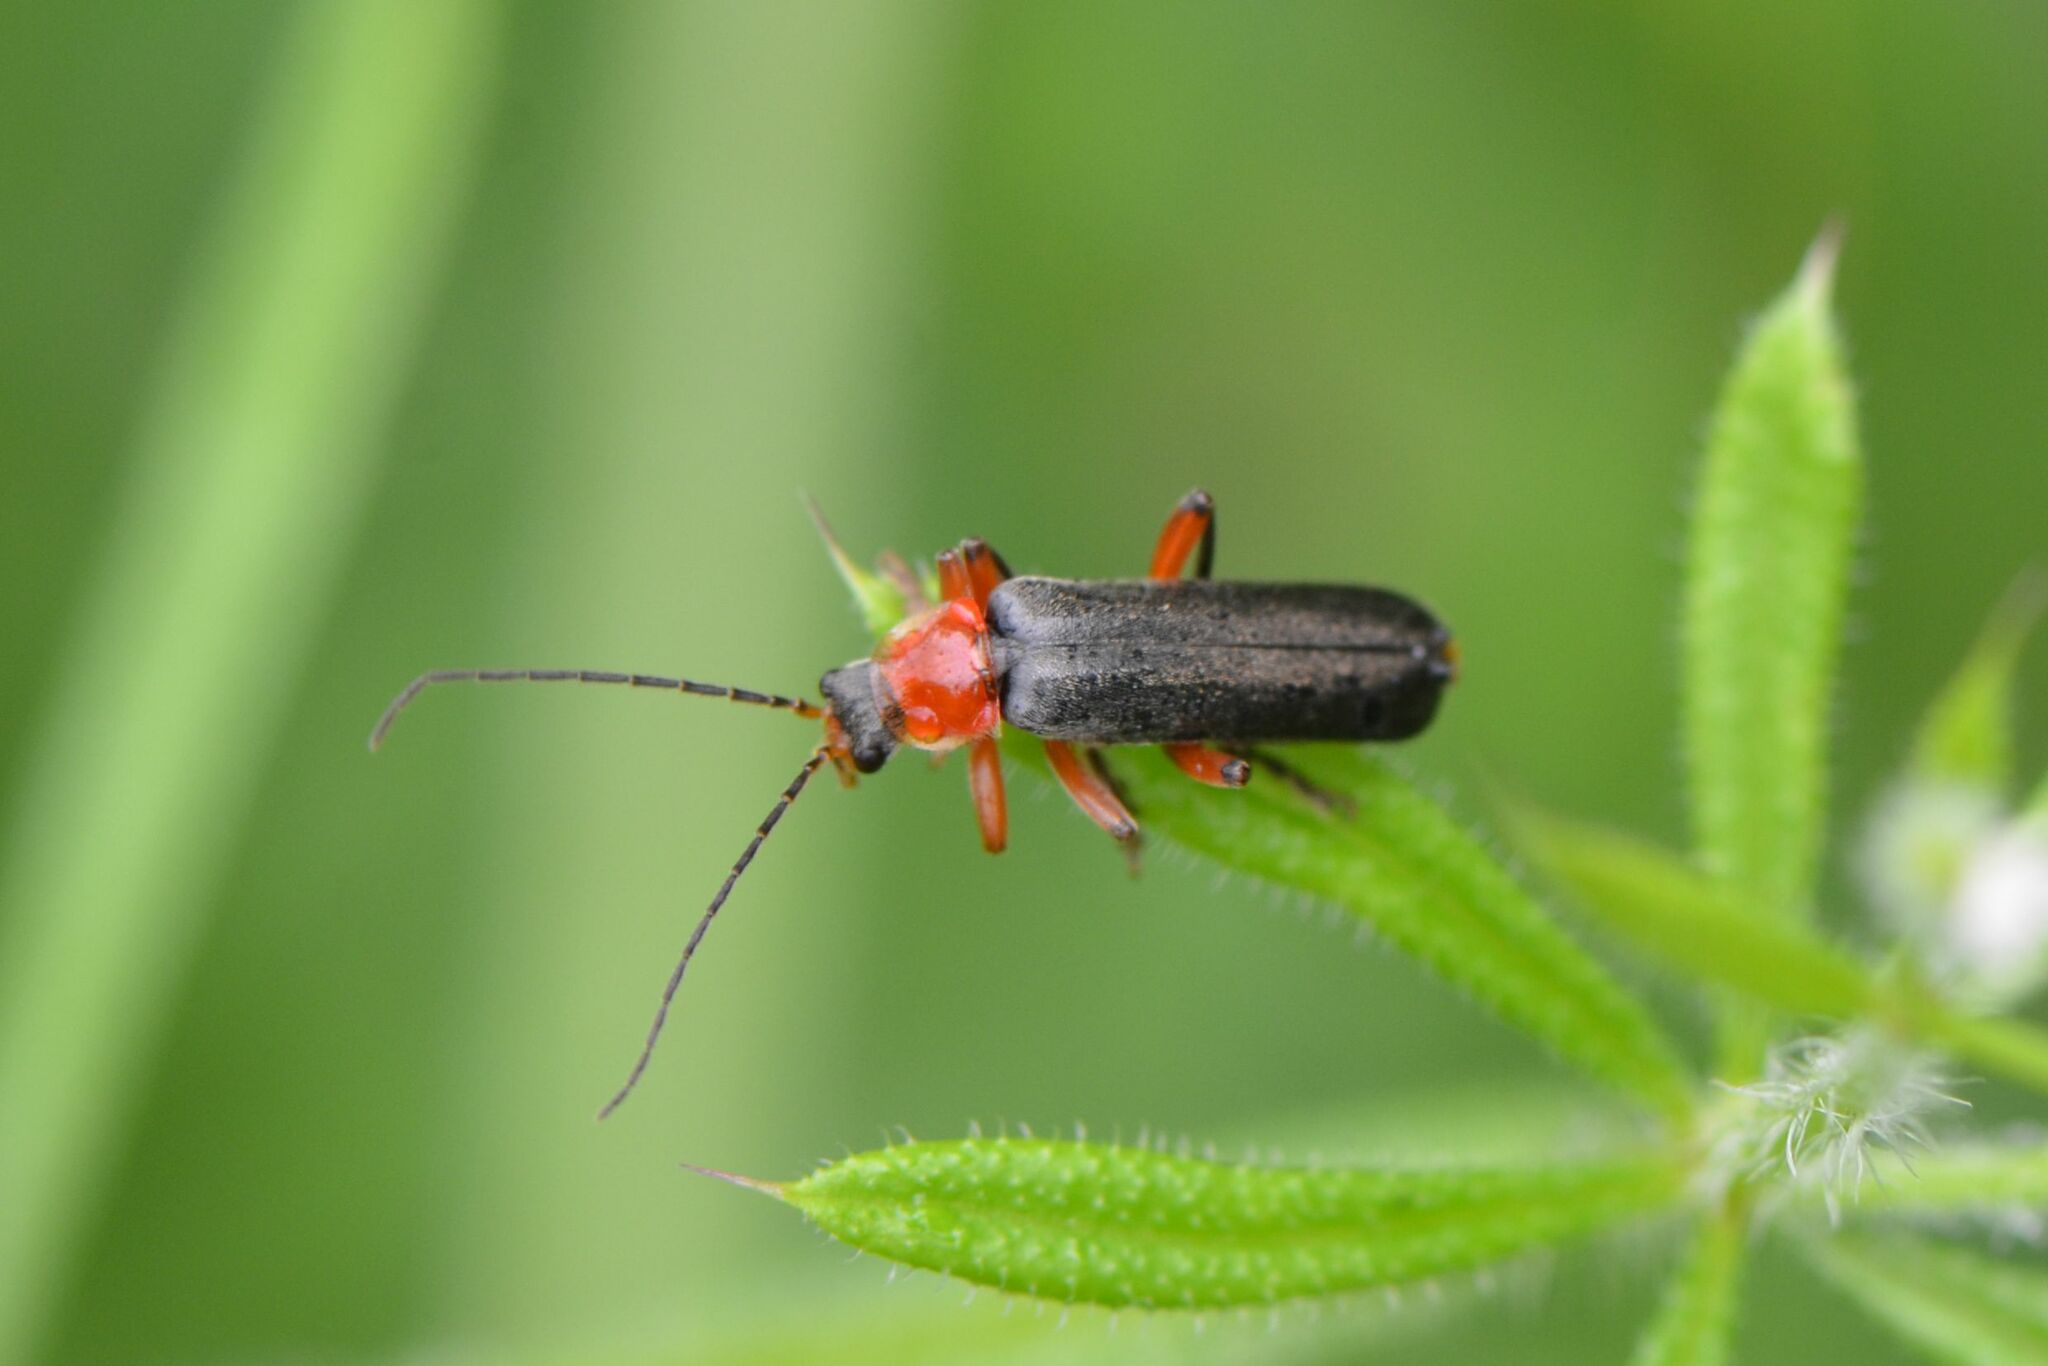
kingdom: Animalia
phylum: Arthropoda
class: Insecta
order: Coleoptera
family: Cantharidae
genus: Cantharis
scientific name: Cantharis pellucida
